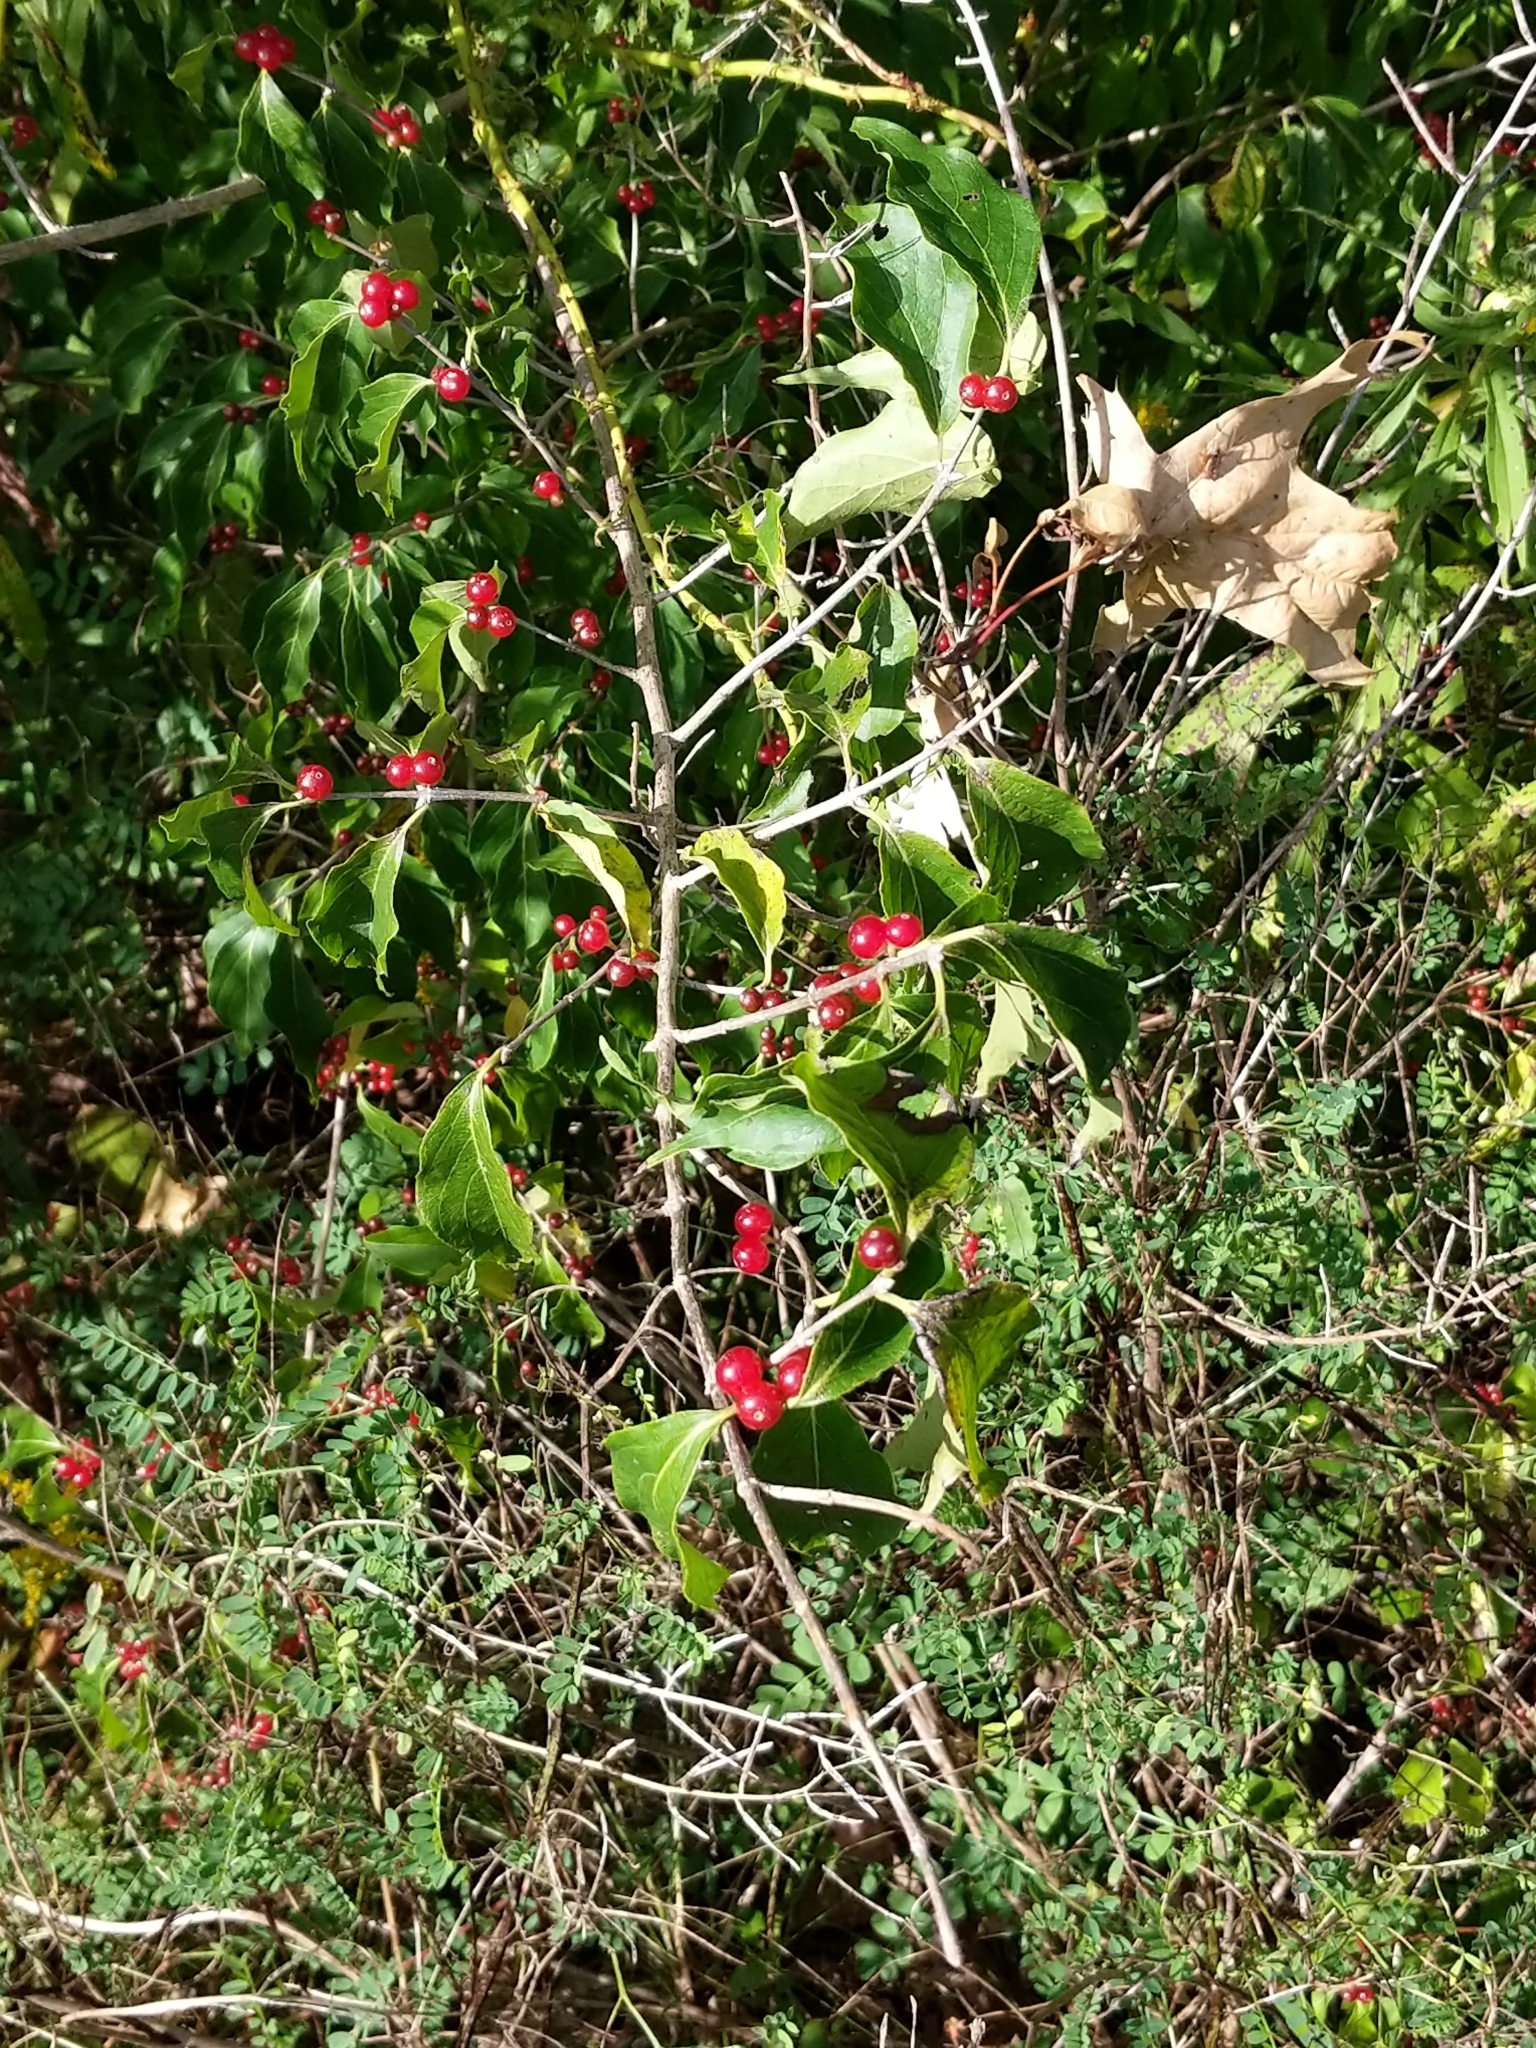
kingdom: Plantae
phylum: Tracheophyta
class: Magnoliopsida
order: Dipsacales
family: Caprifoliaceae
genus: Lonicera
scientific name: Lonicera maackii
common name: Amur honeysuckle
